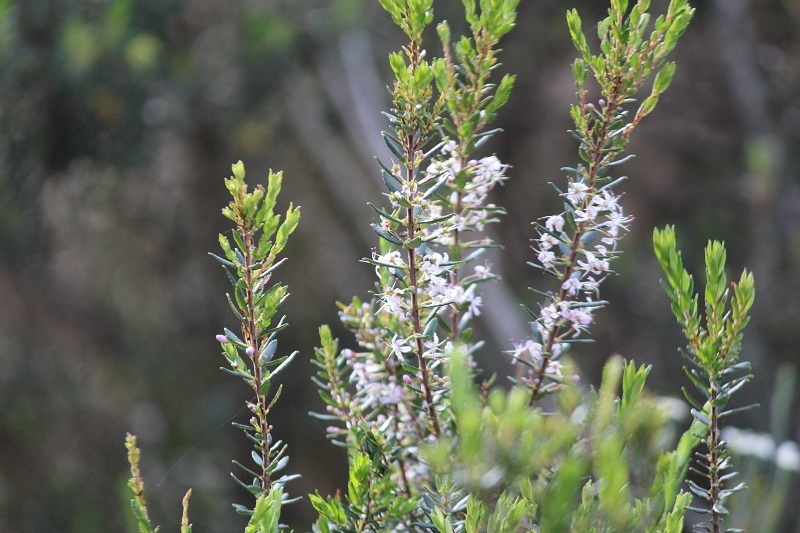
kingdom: Plantae
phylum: Tracheophyta
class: Magnoliopsida
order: Sapindales
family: Rutaceae
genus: Agathosma
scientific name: Agathosma ovata
